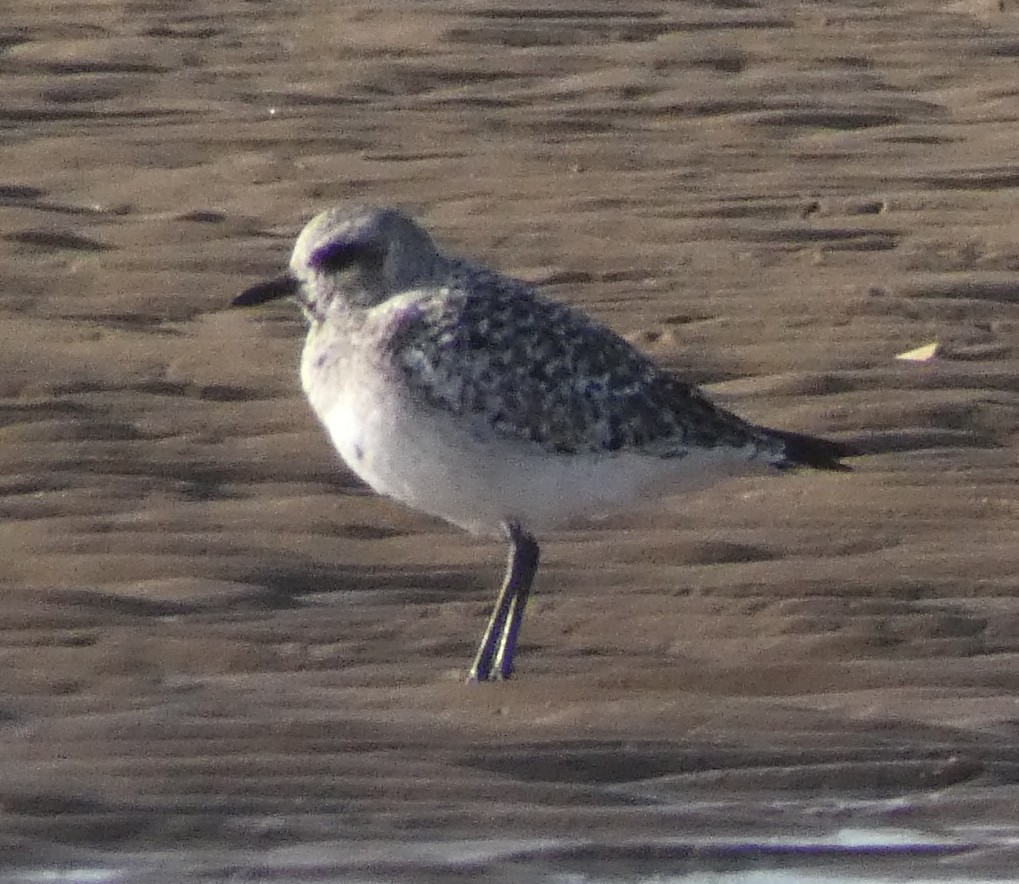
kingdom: Animalia
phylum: Chordata
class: Aves
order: Charadriiformes
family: Charadriidae
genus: Pluvialis
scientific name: Pluvialis squatarola
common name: Grey plover
